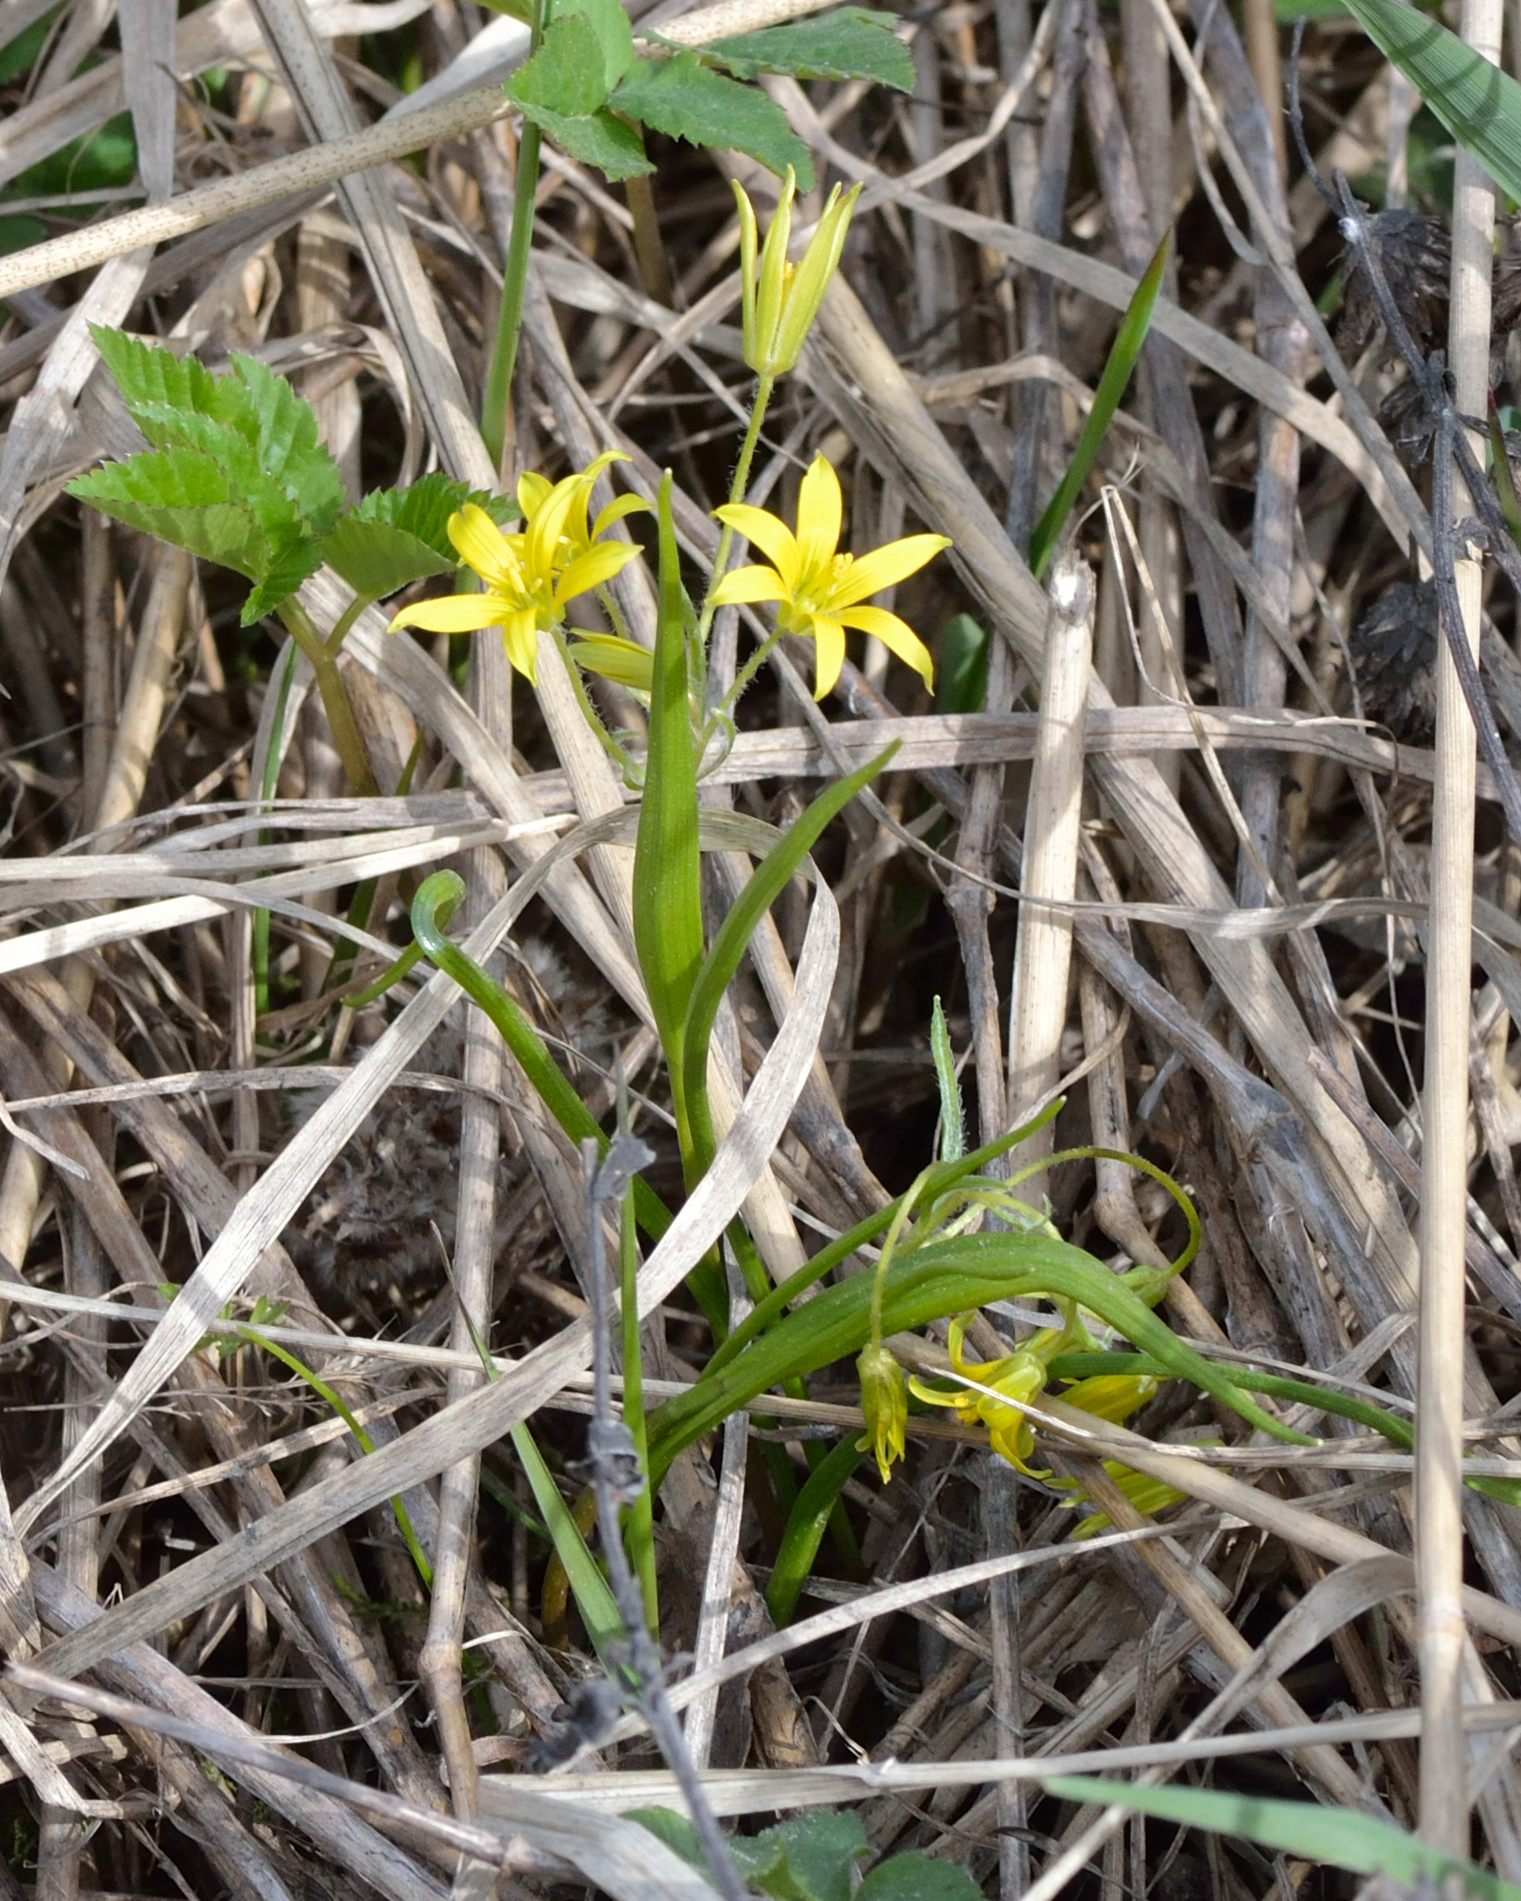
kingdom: Plantae
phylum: Tracheophyta
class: Liliopsida
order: Liliales
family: Liliaceae
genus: Gagea
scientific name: Gagea minima
